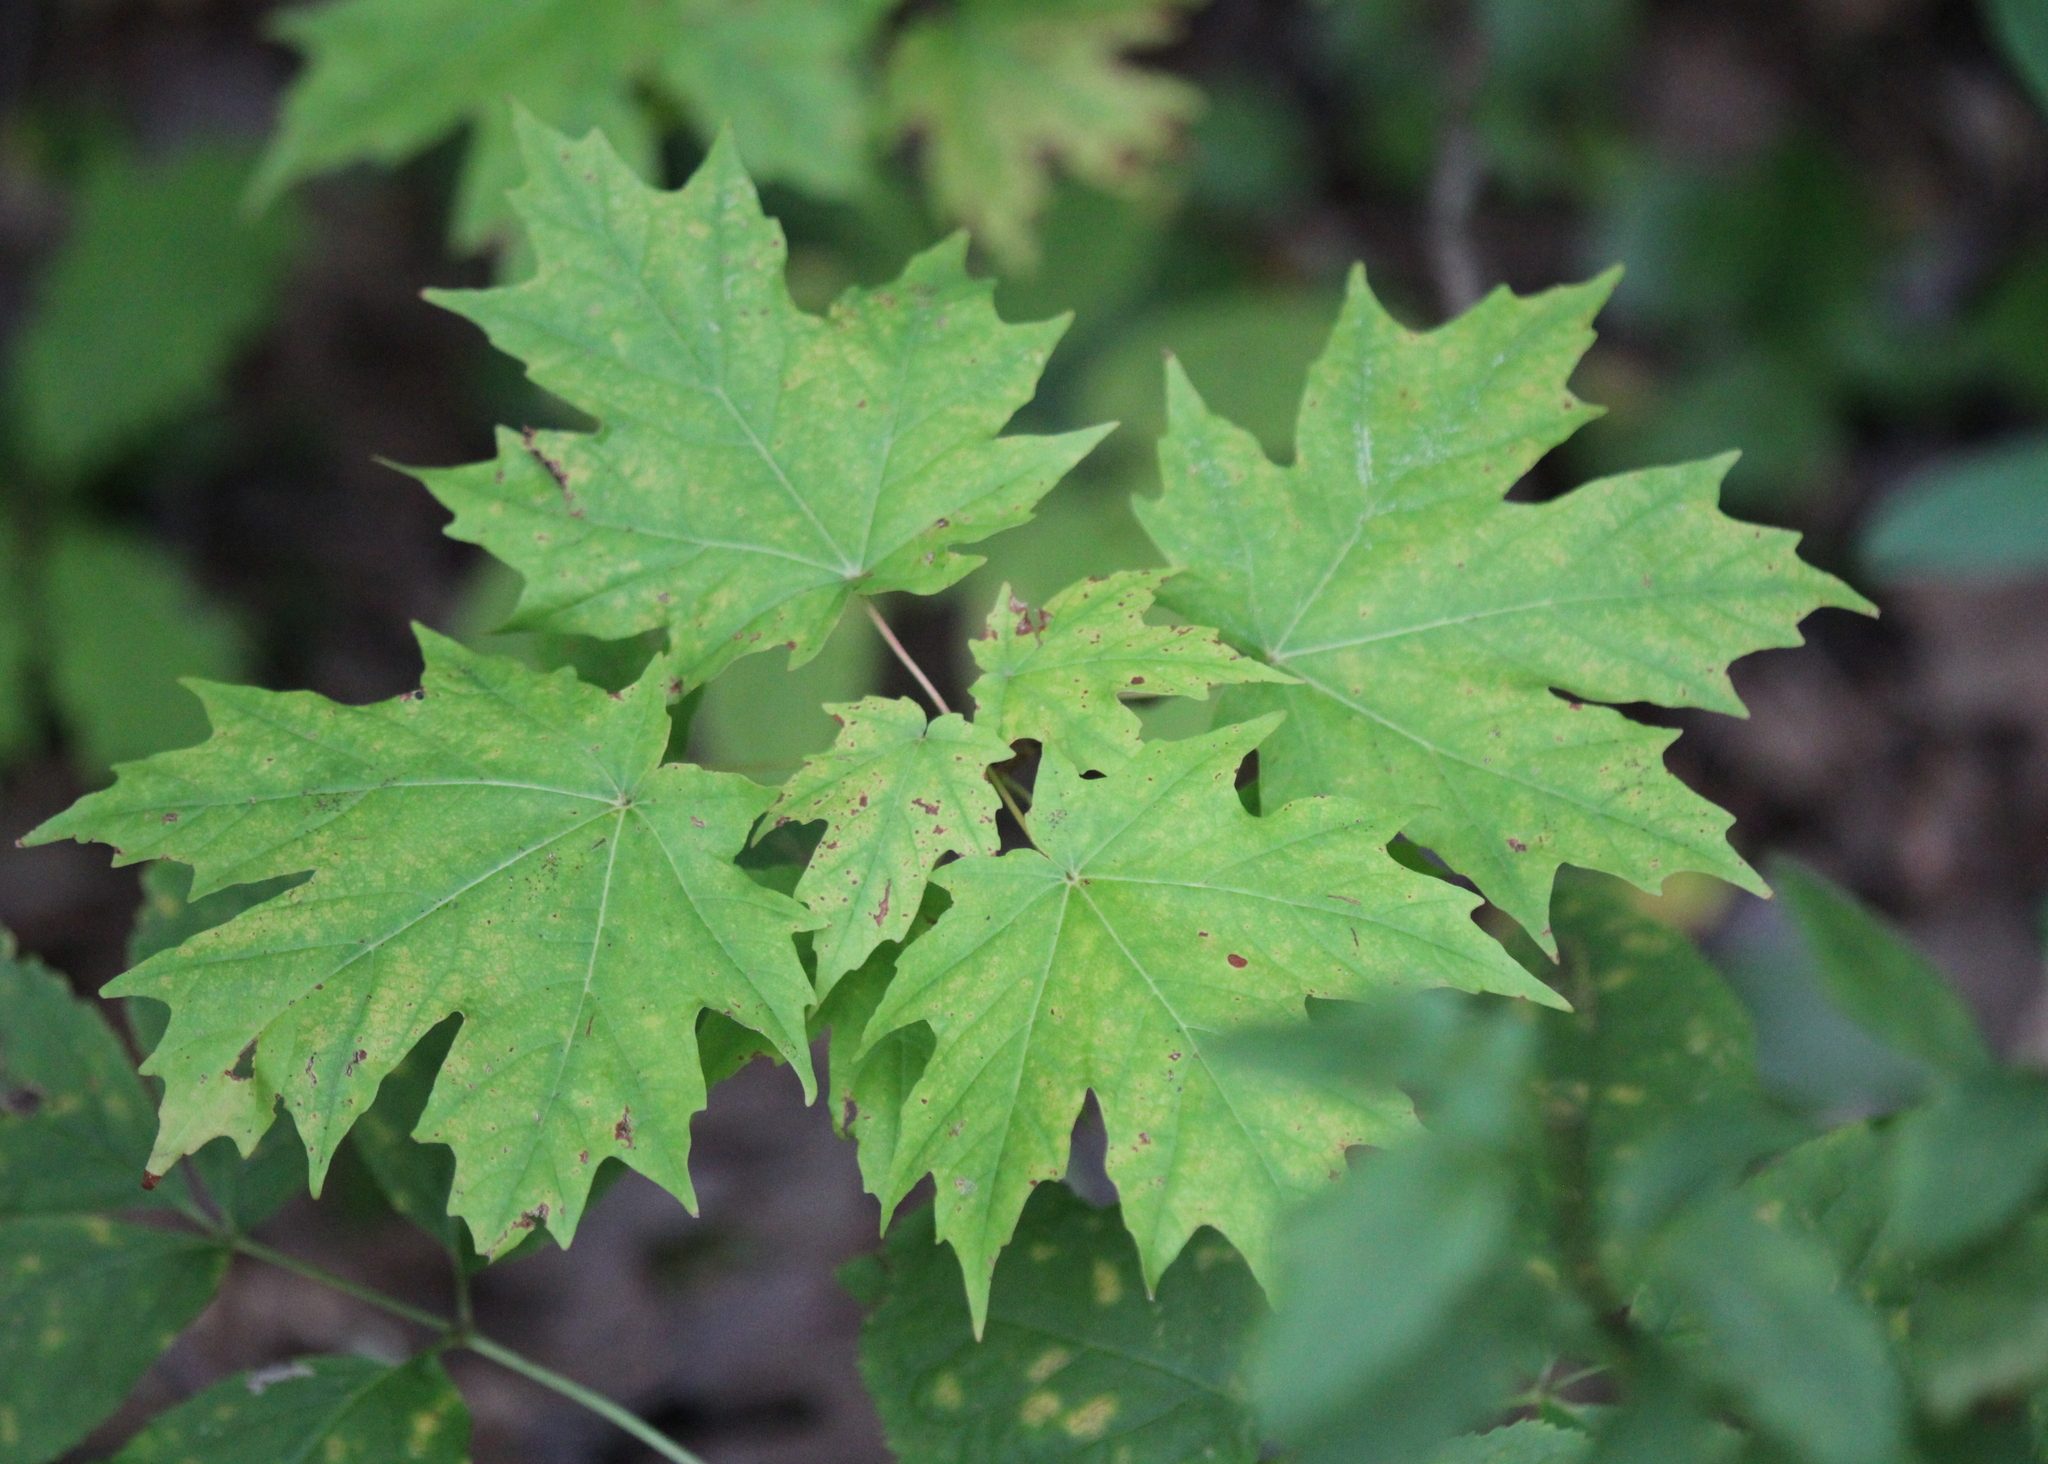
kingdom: Plantae
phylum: Tracheophyta
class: Magnoliopsida
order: Sapindales
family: Sapindaceae
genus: Acer
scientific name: Acer saccharum
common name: Sugar maple
